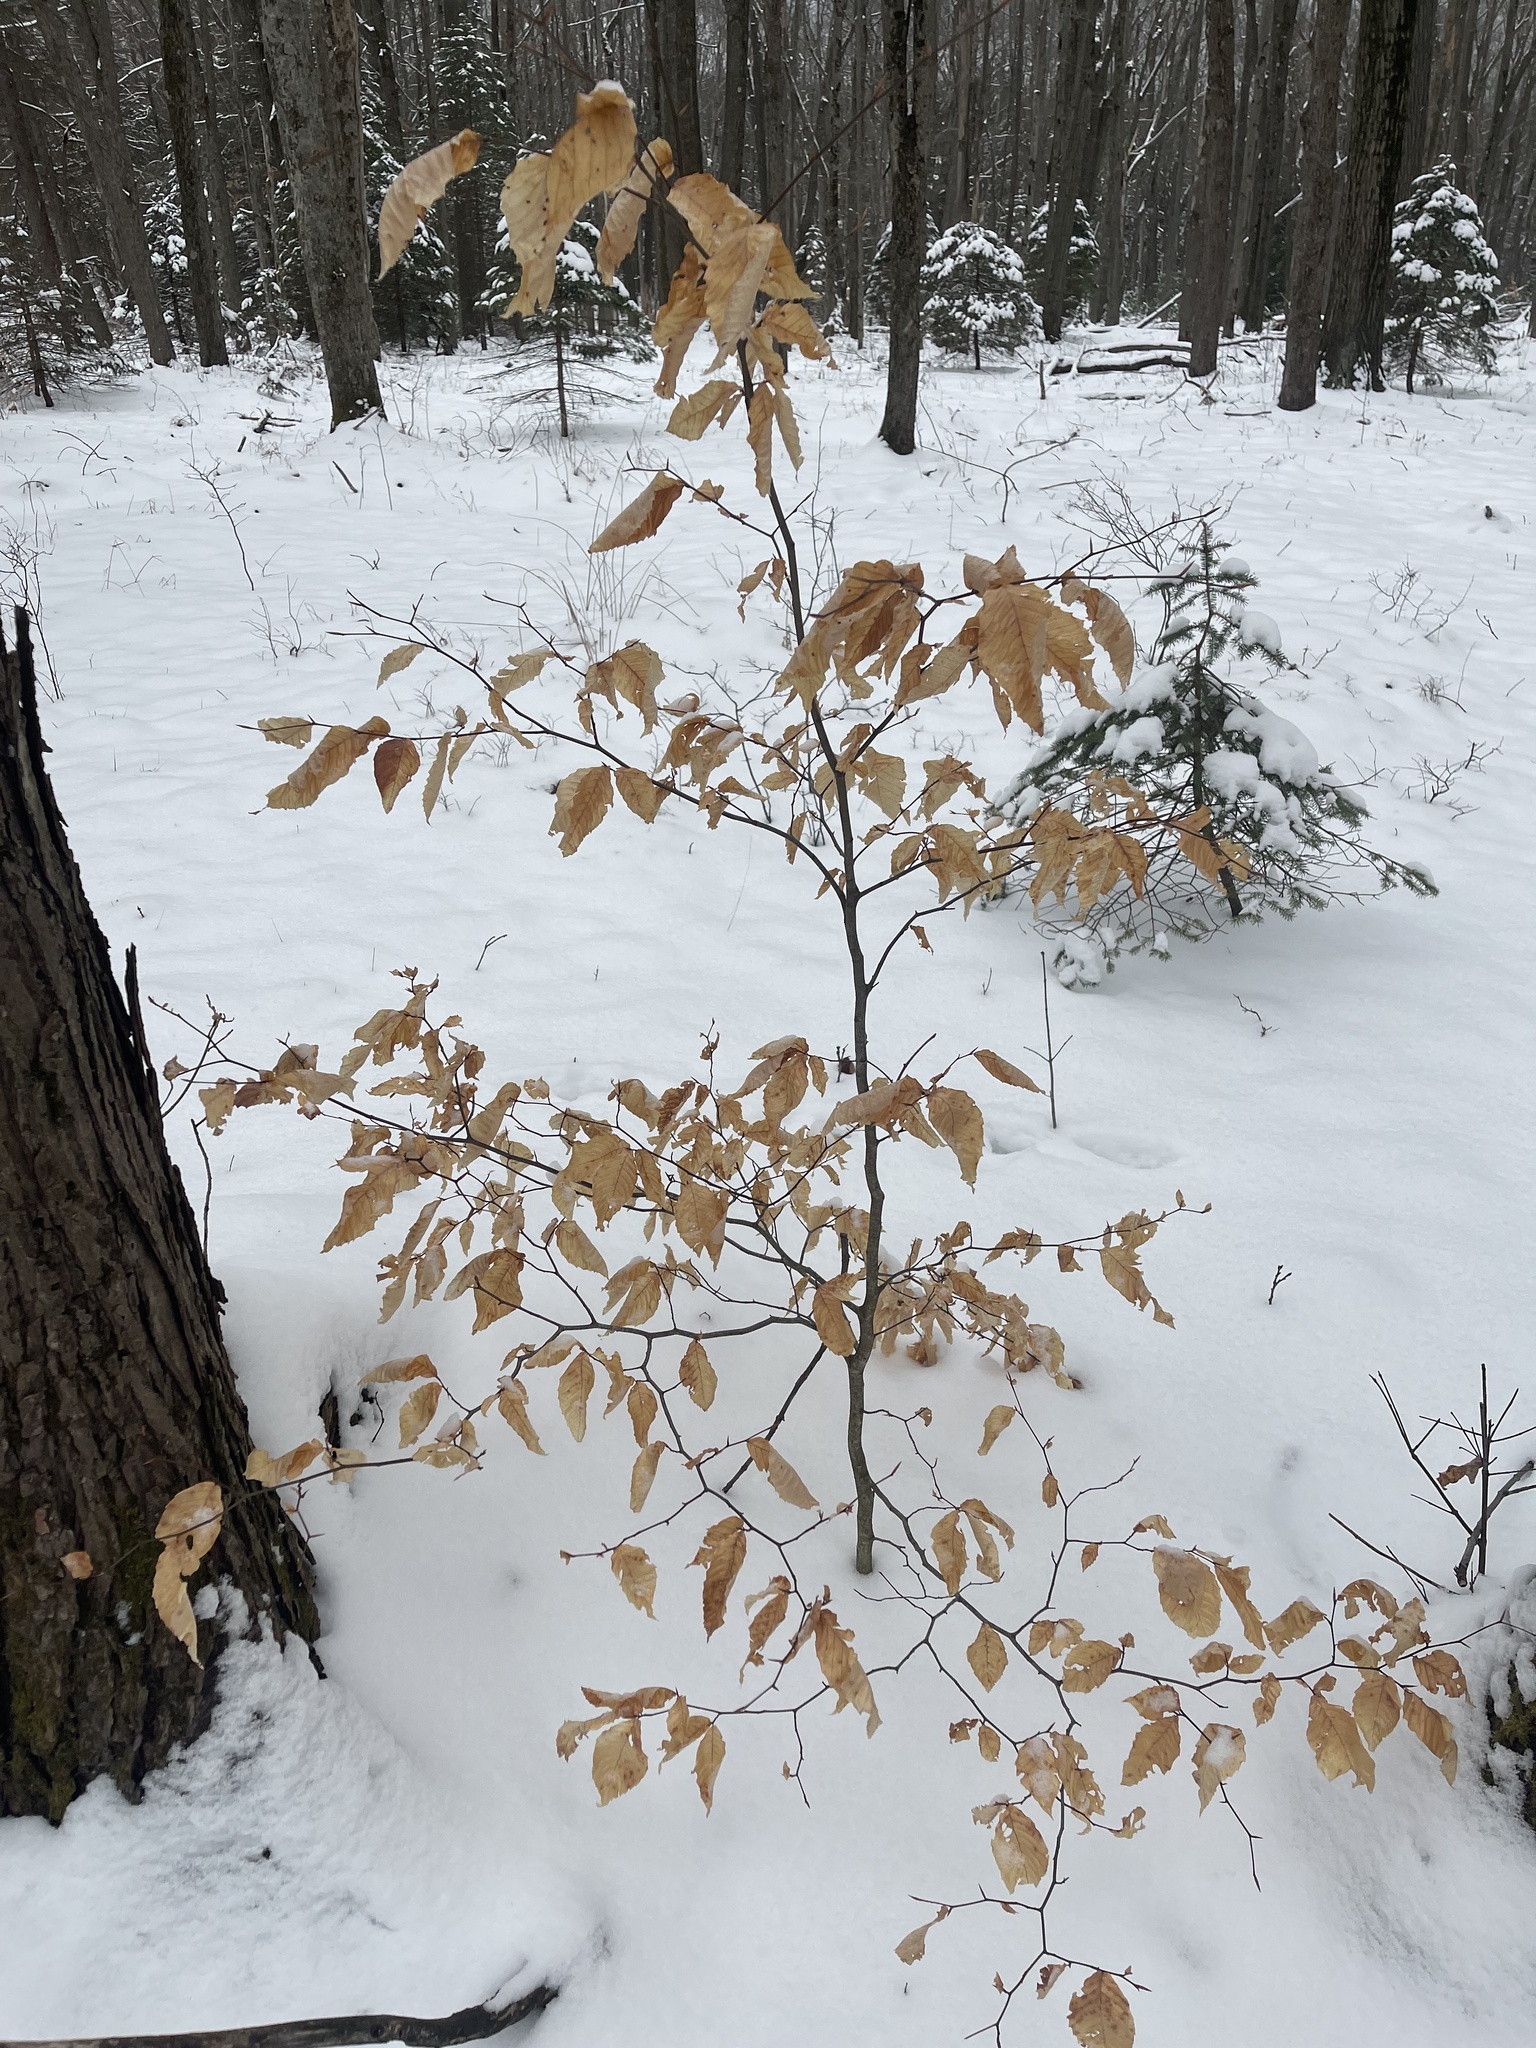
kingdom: Plantae
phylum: Tracheophyta
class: Magnoliopsida
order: Fagales
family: Fagaceae
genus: Fagus
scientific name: Fagus grandifolia
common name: American beech
